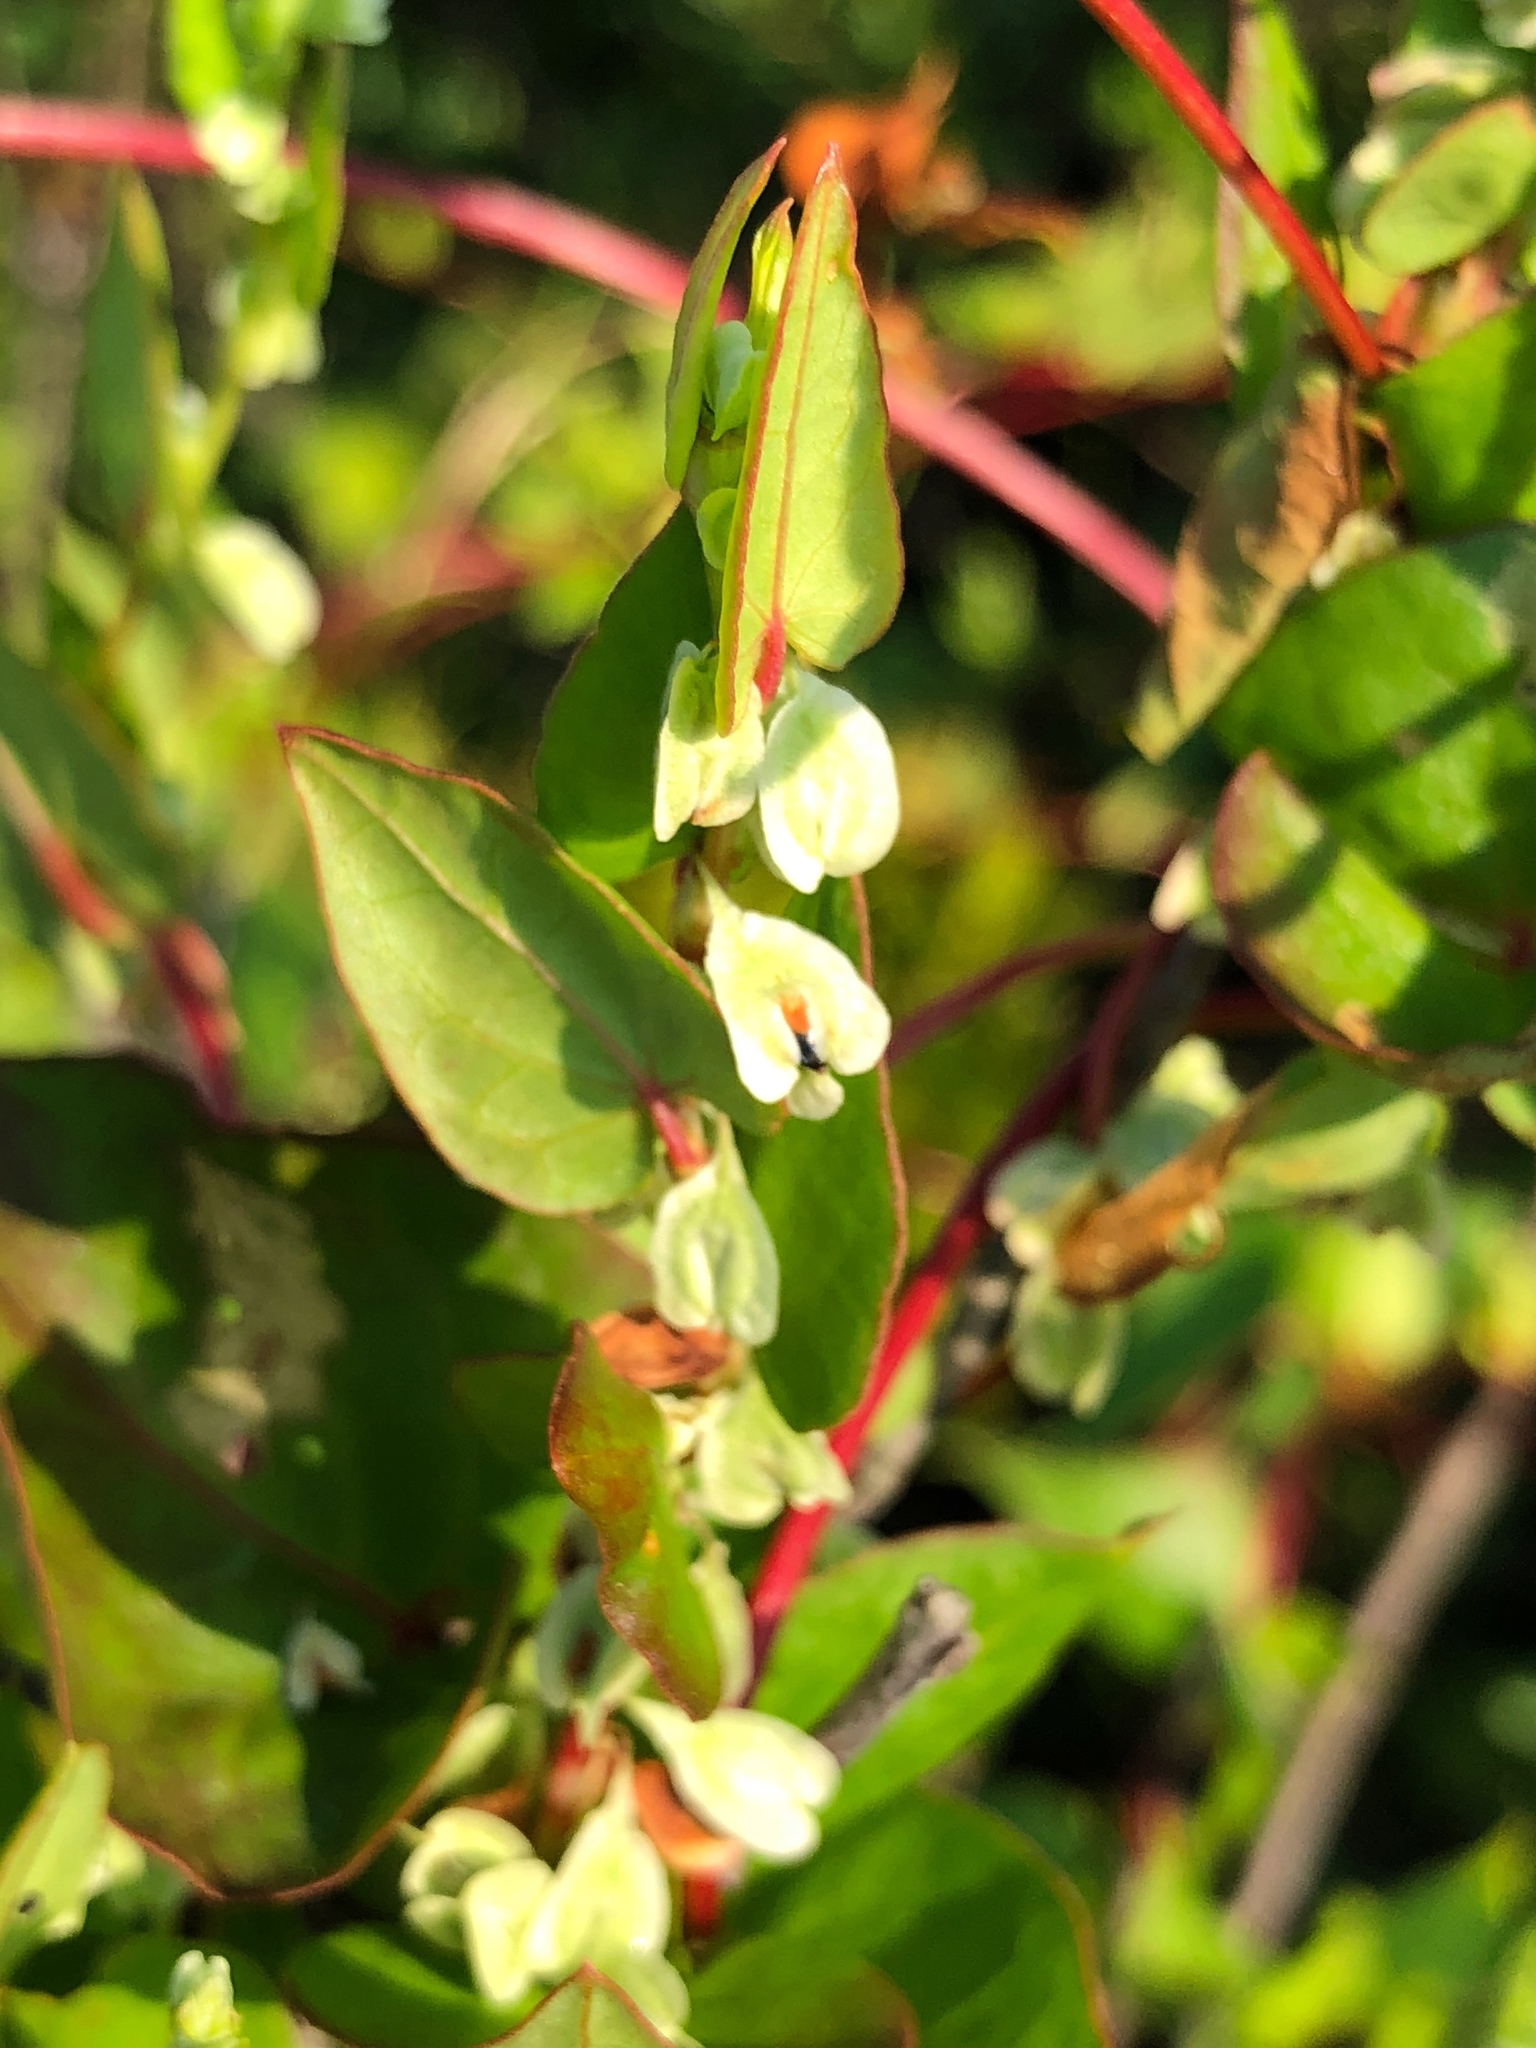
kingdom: Plantae
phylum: Tracheophyta
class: Magnoliopsida
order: Caryophyllales
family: Polygonaceae
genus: Fallopia
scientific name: Fallopia scandens
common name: Climbing false buckwheat
